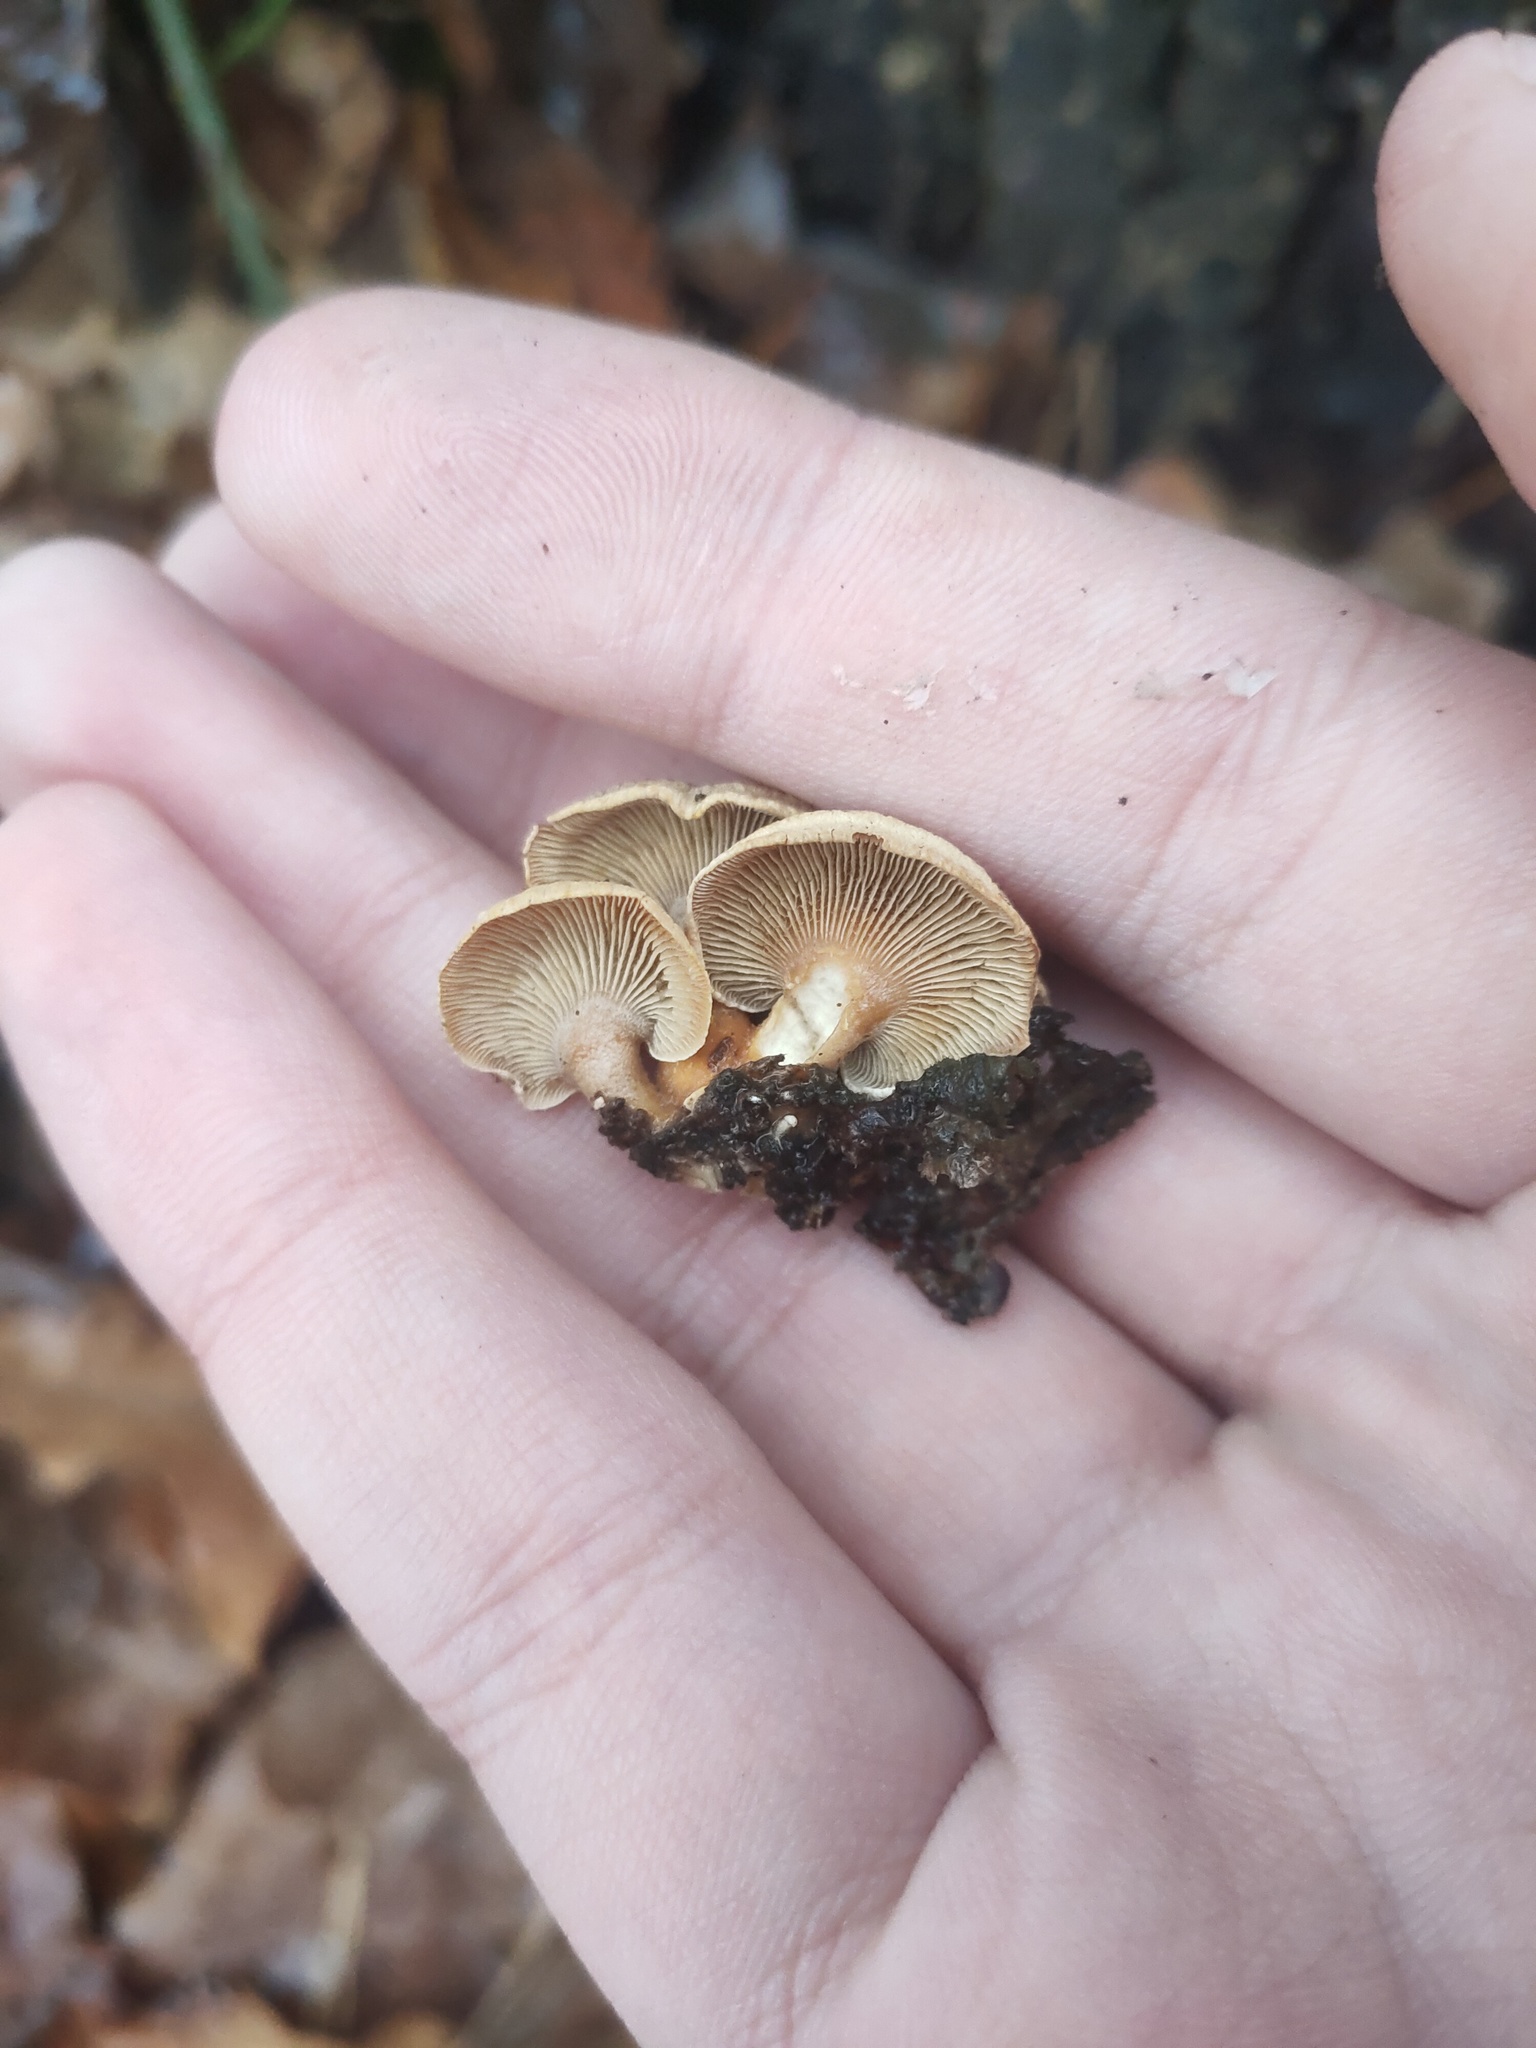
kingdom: Fungi
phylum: Basidiomycota
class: Agaricomycetes
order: Agaricales
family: Mycenaceae
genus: Panellus
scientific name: Panellus stipticus
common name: Bitter oysterling
